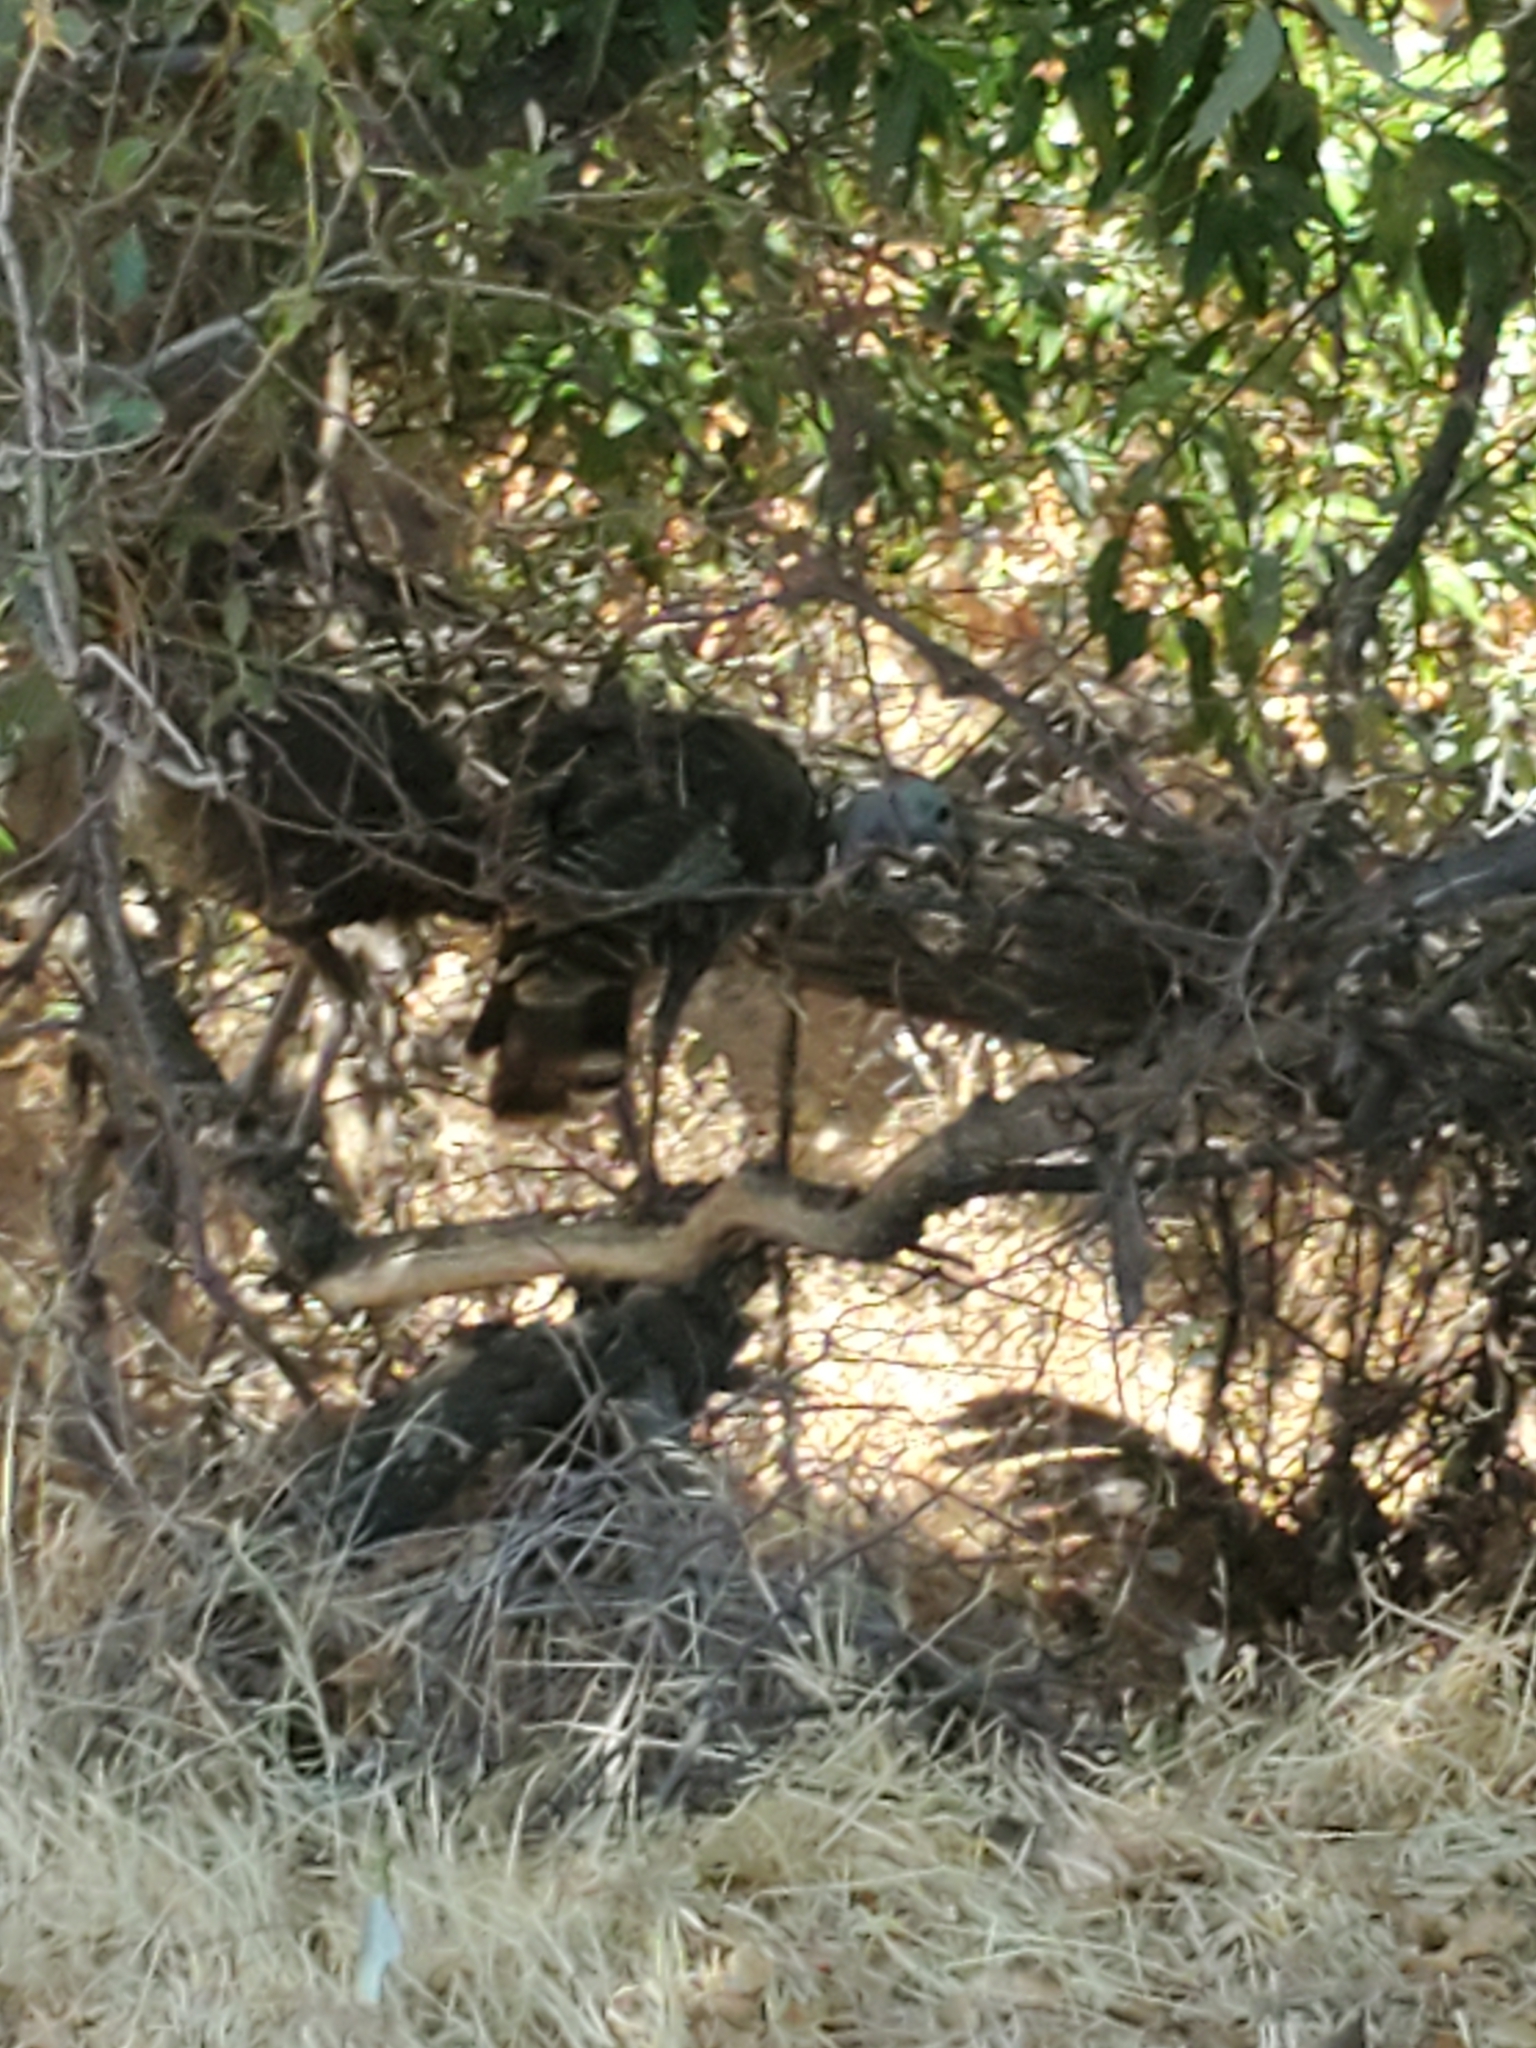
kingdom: Animalia
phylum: Chordata
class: Aves
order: Galliformes
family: Phasianidae
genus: Meleagris
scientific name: Meleagris gallopavo
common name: Wild turkey
